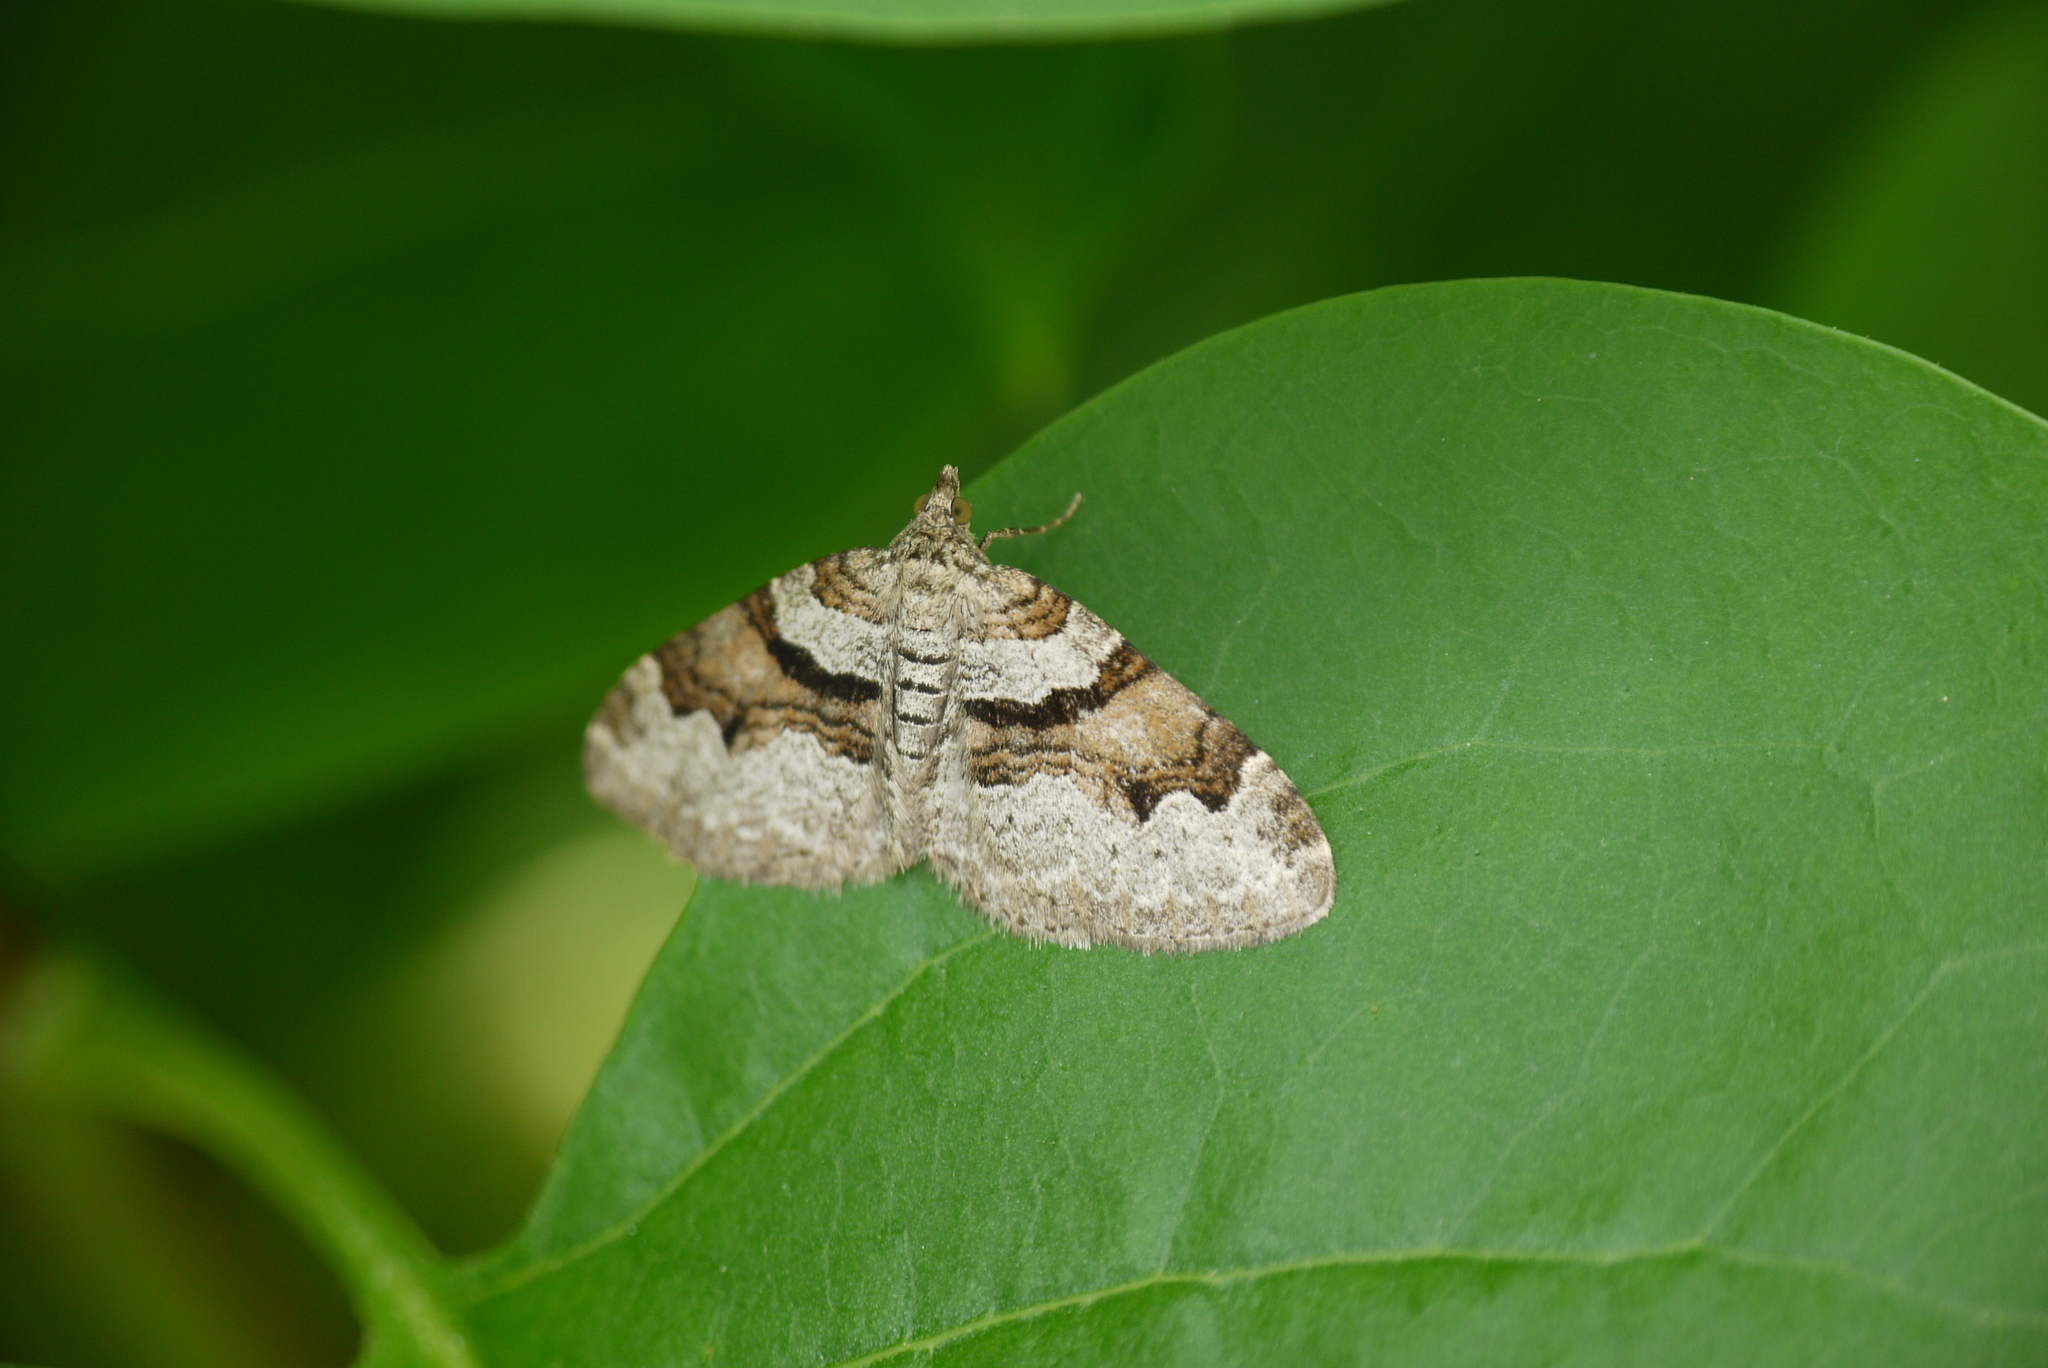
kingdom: Animalia
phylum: Arthropoda
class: Insecta
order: Lepidoptera
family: Geometridae
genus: Xanthorhoe
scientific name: Xanthorhoe designata
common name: Flame carpet
